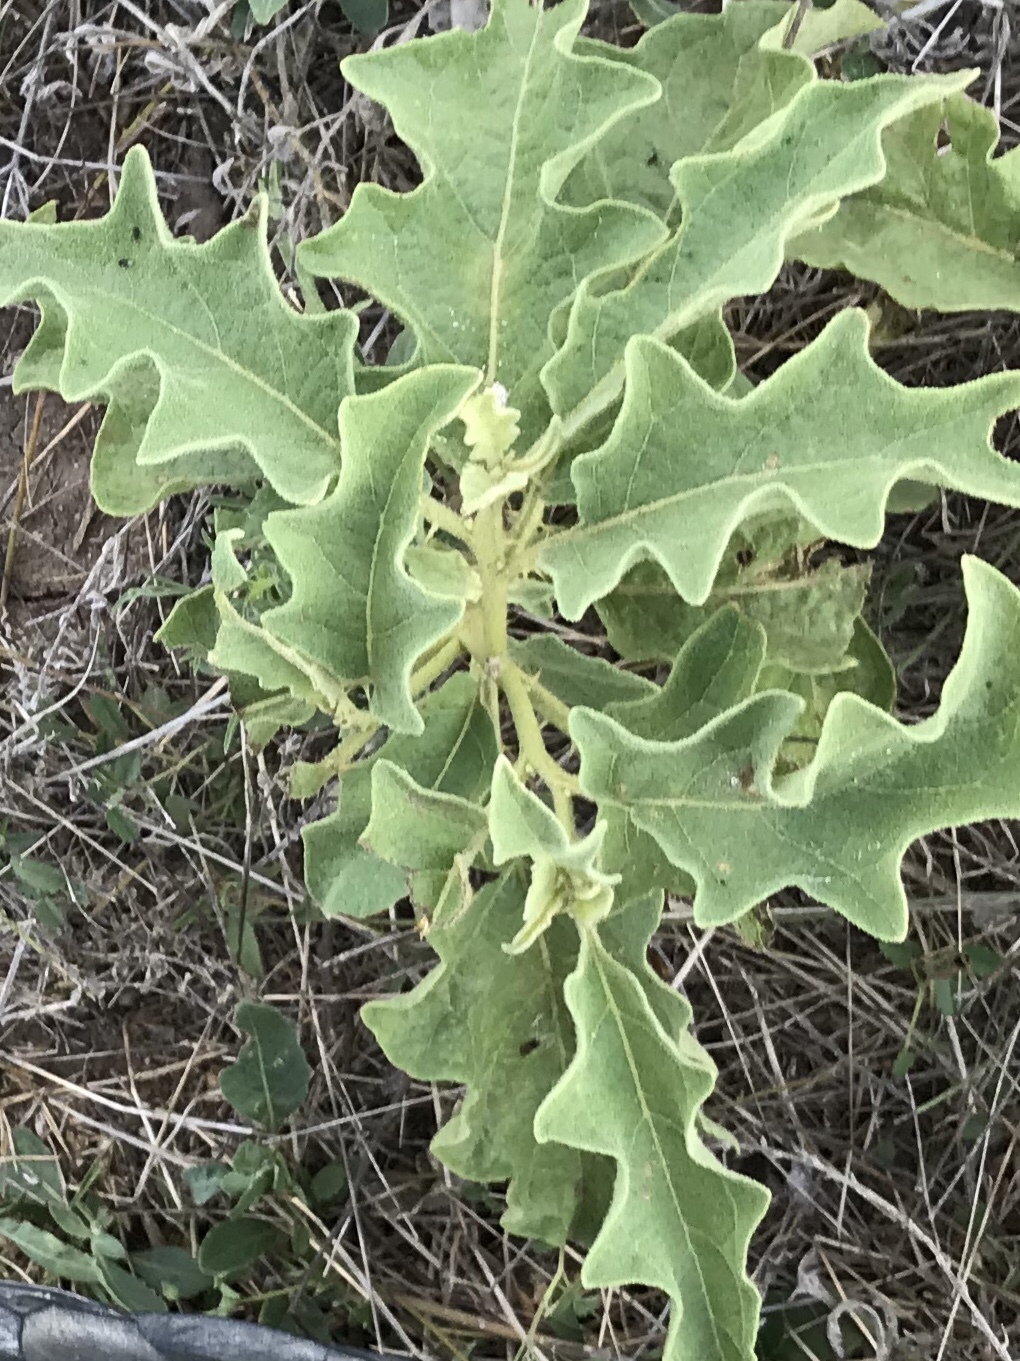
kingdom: Plantae
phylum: Tracheophyta
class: Magnoliopsida
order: Solanales
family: Solanaceae
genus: Solanum
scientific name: Solanum dimidiatum
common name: Carolina horse-nettle
